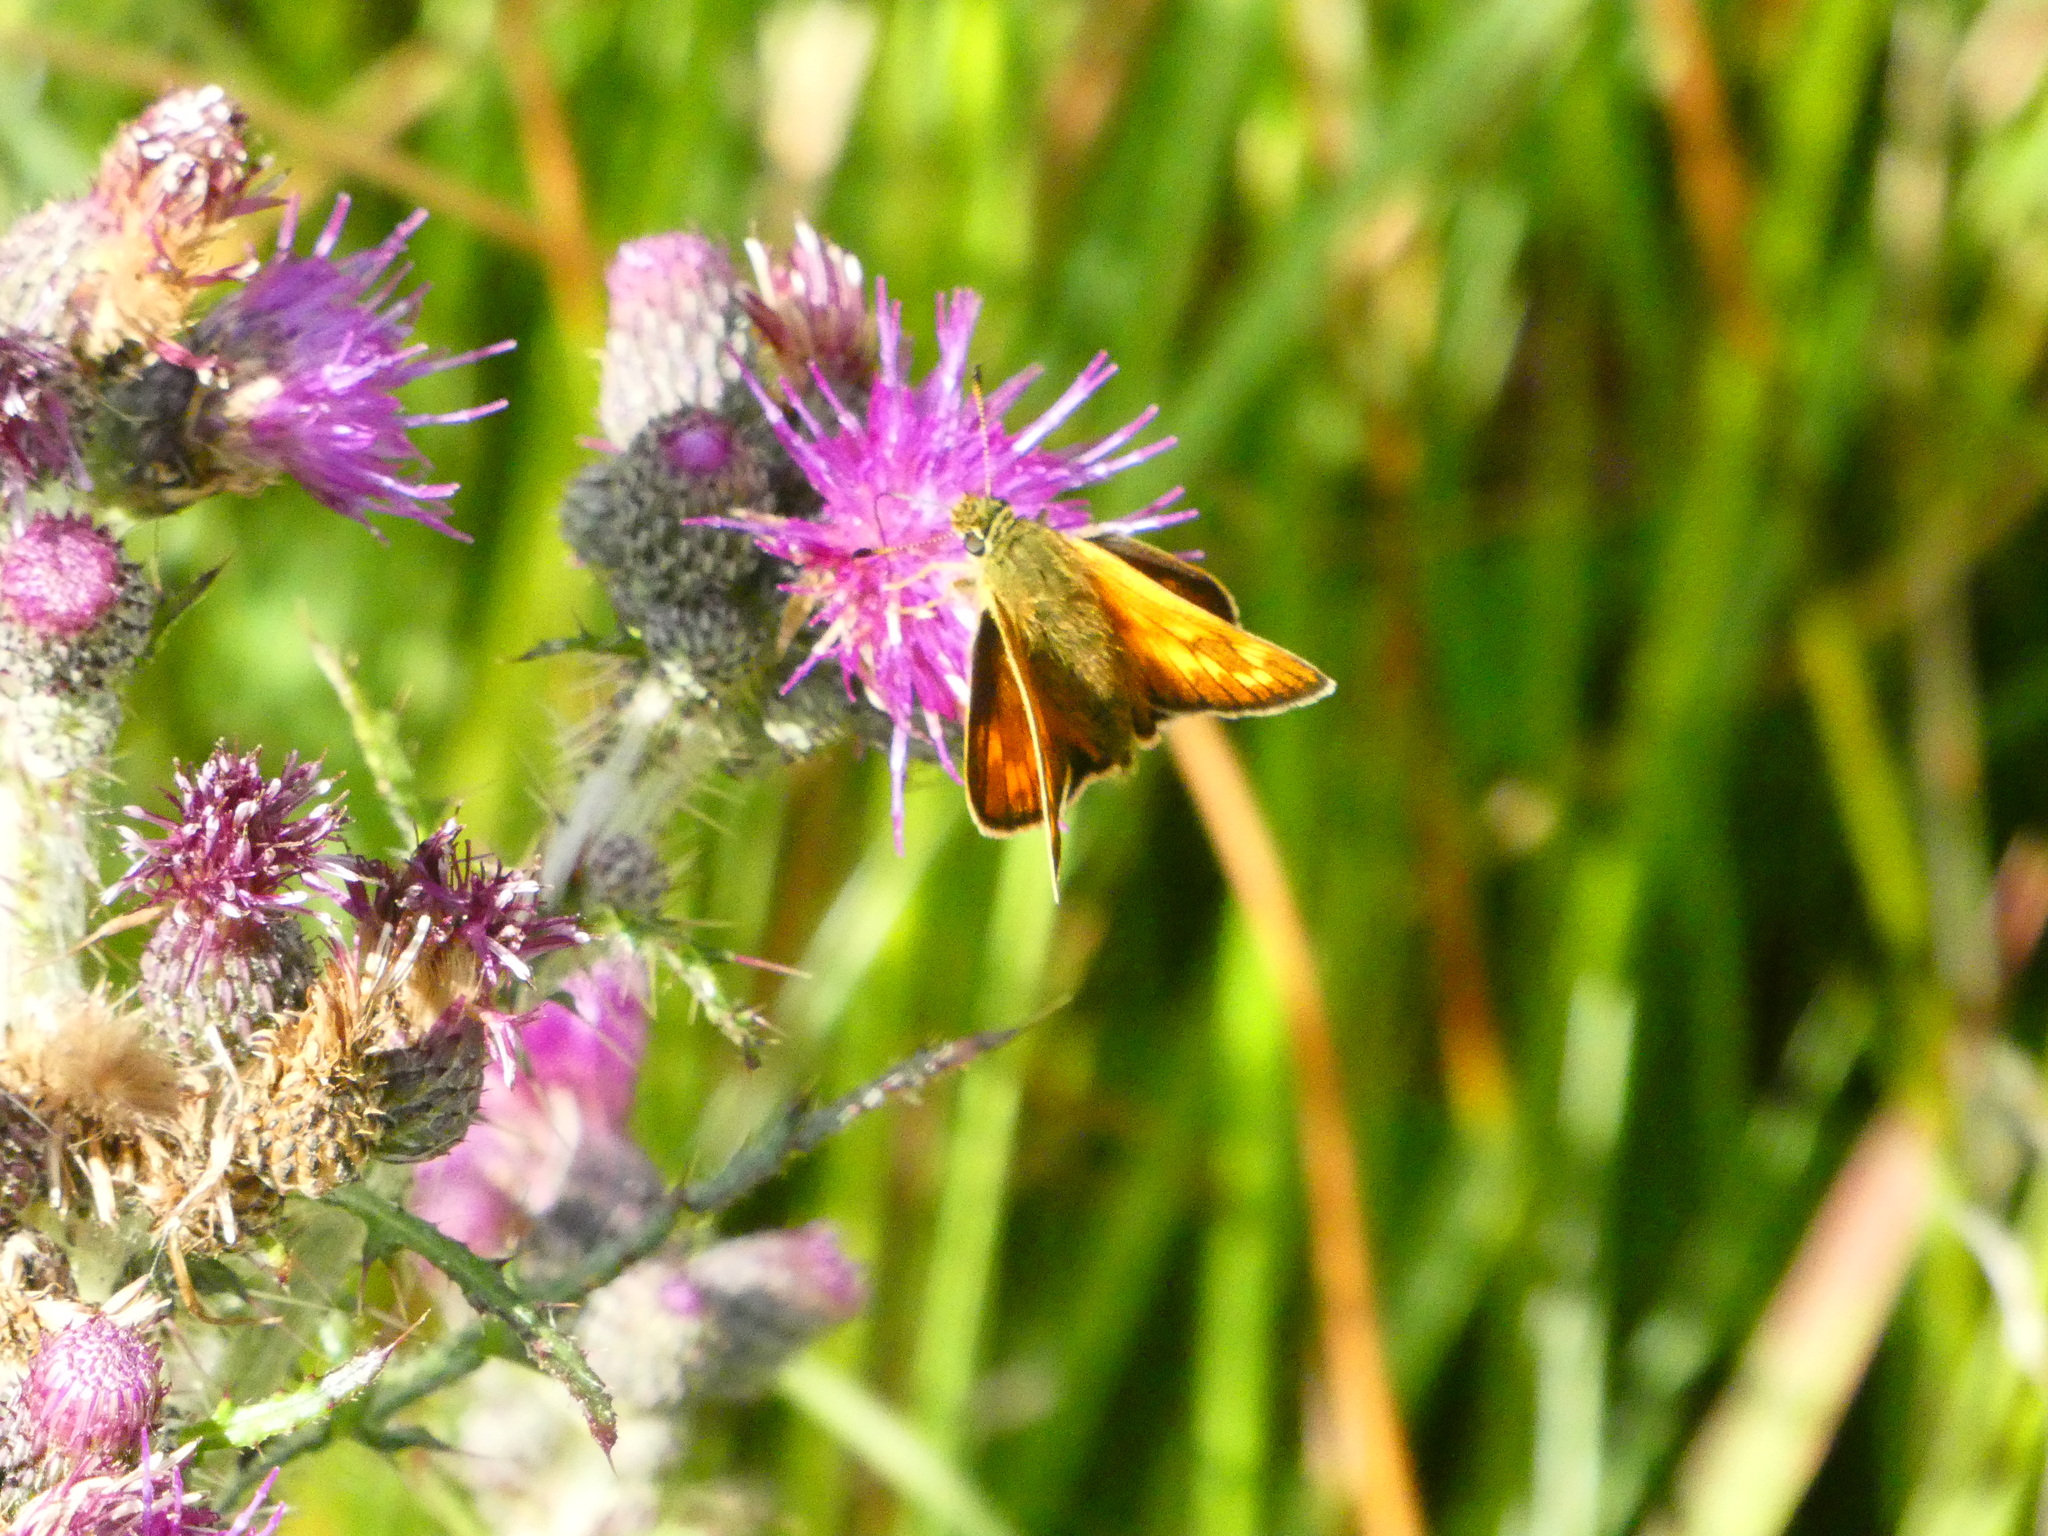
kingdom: Animalia
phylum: Arthropoda
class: Insecta
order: Lepidoptera
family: Hesperiidae
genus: Ochlodes
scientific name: Ochlodes venata
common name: Large skipper
